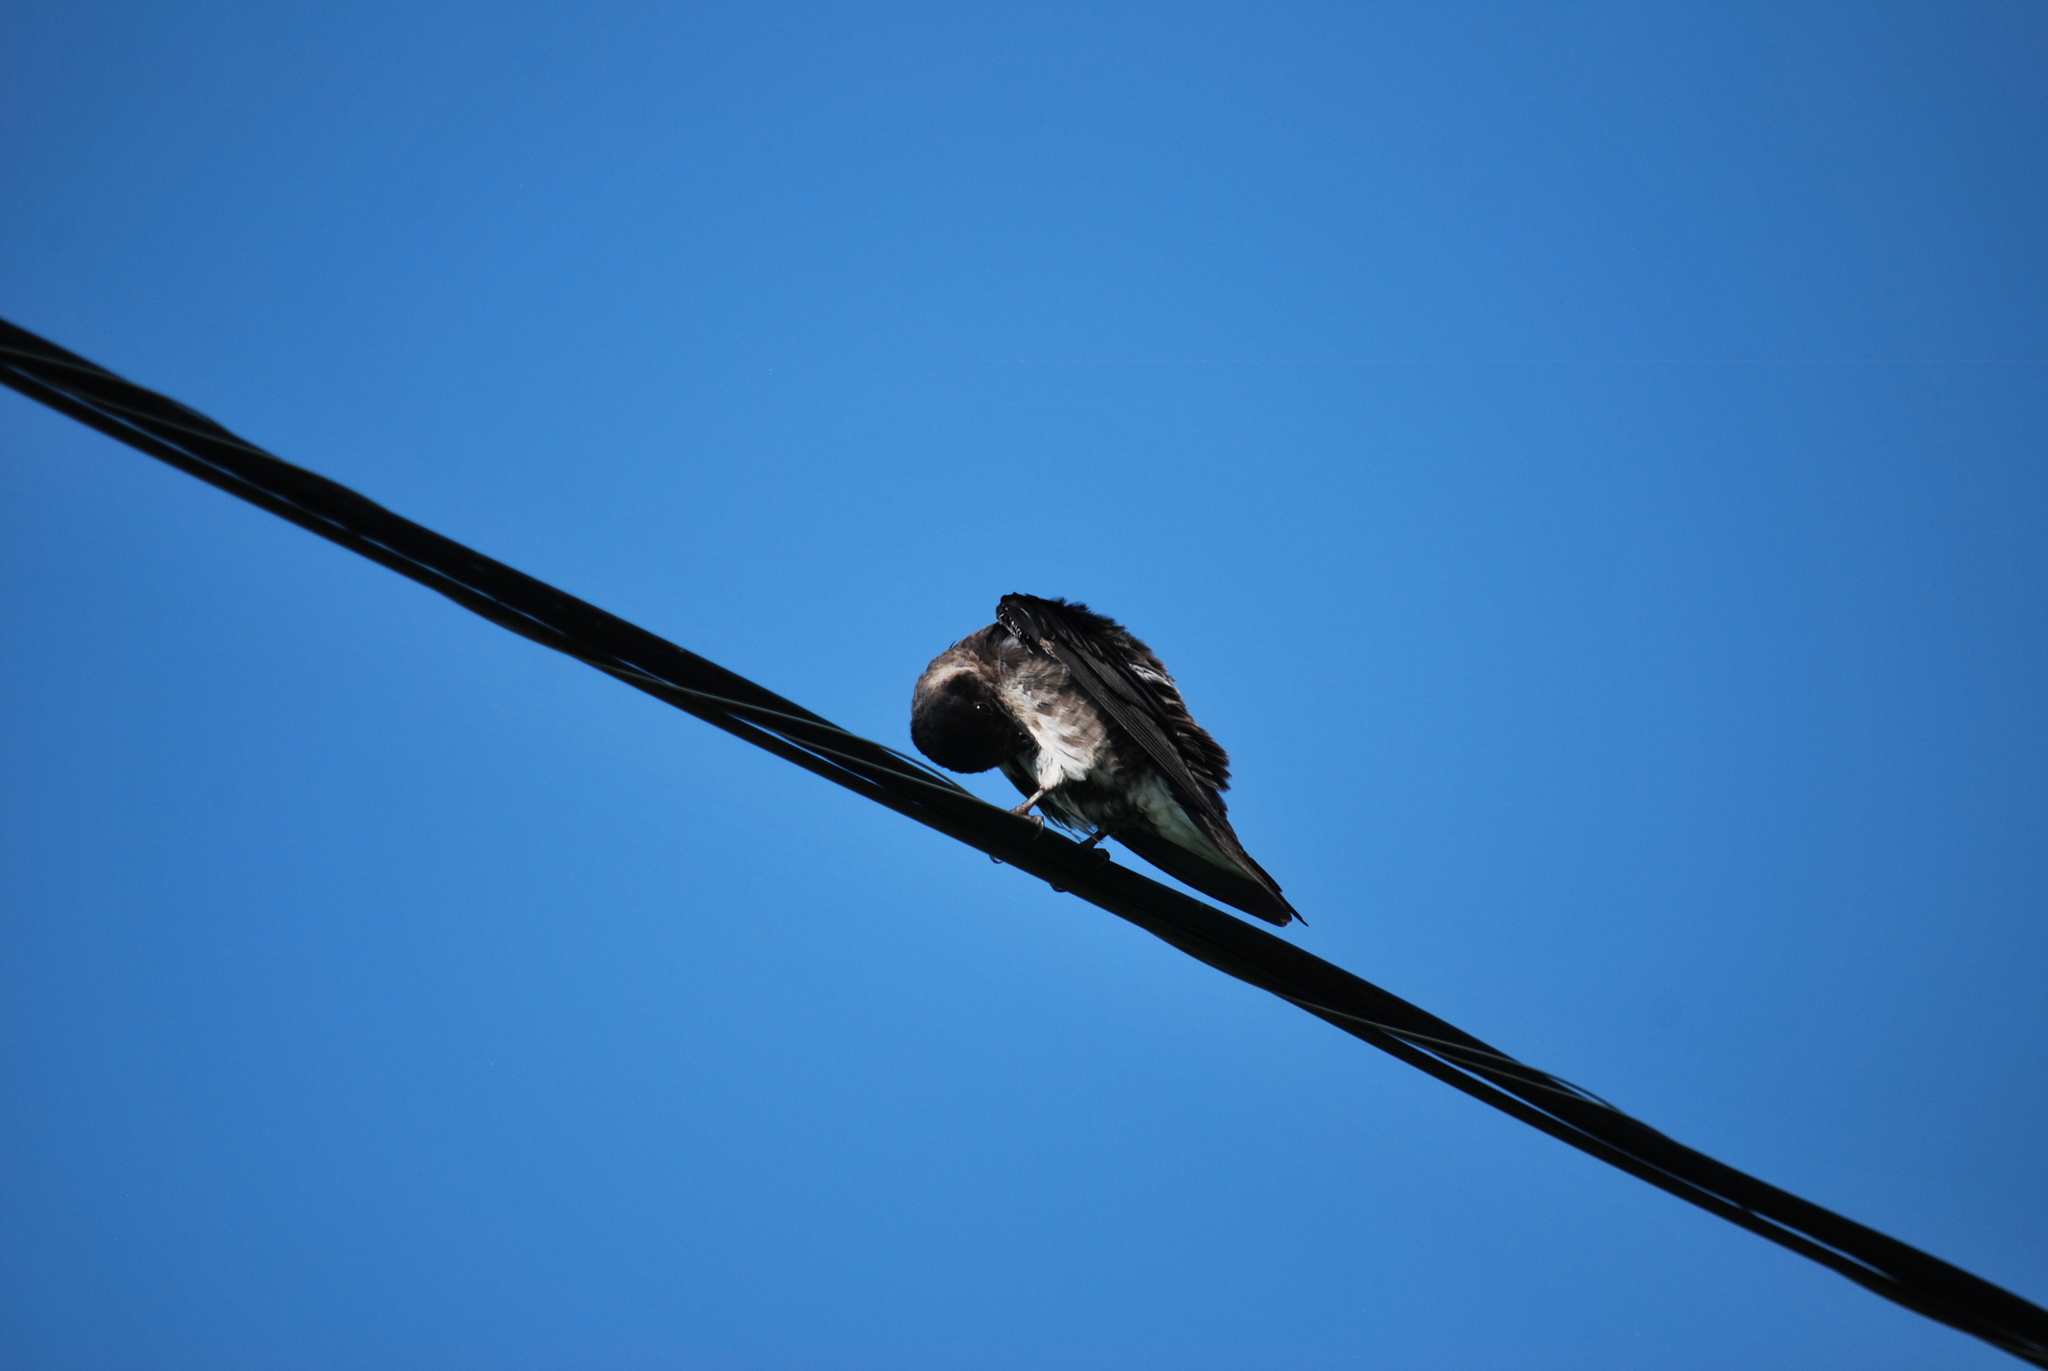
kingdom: Animalia
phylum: Chordata
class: Aves
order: Passeriformes
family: Hirundinidae
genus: Progne
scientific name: Progne subis
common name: Purple martin
